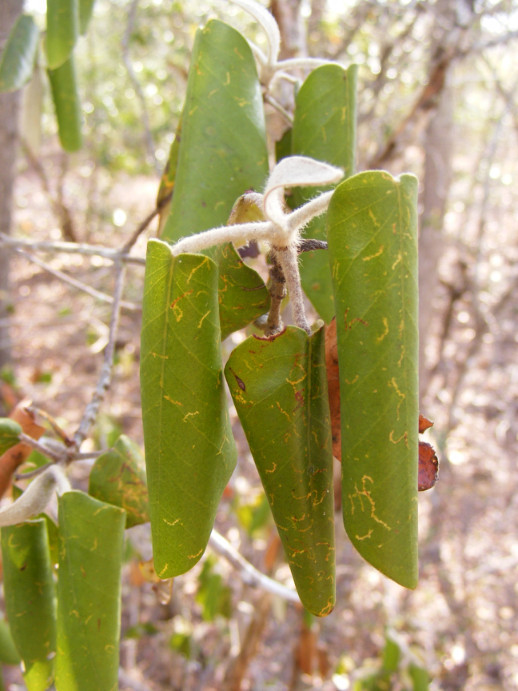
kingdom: Plantae
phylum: Tracheophyta
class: Magnoliopsida
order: Malpighiales
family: Picrodendraceae
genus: Androstachys
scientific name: Androstachys johnsonii
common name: Lebombo ironwood
